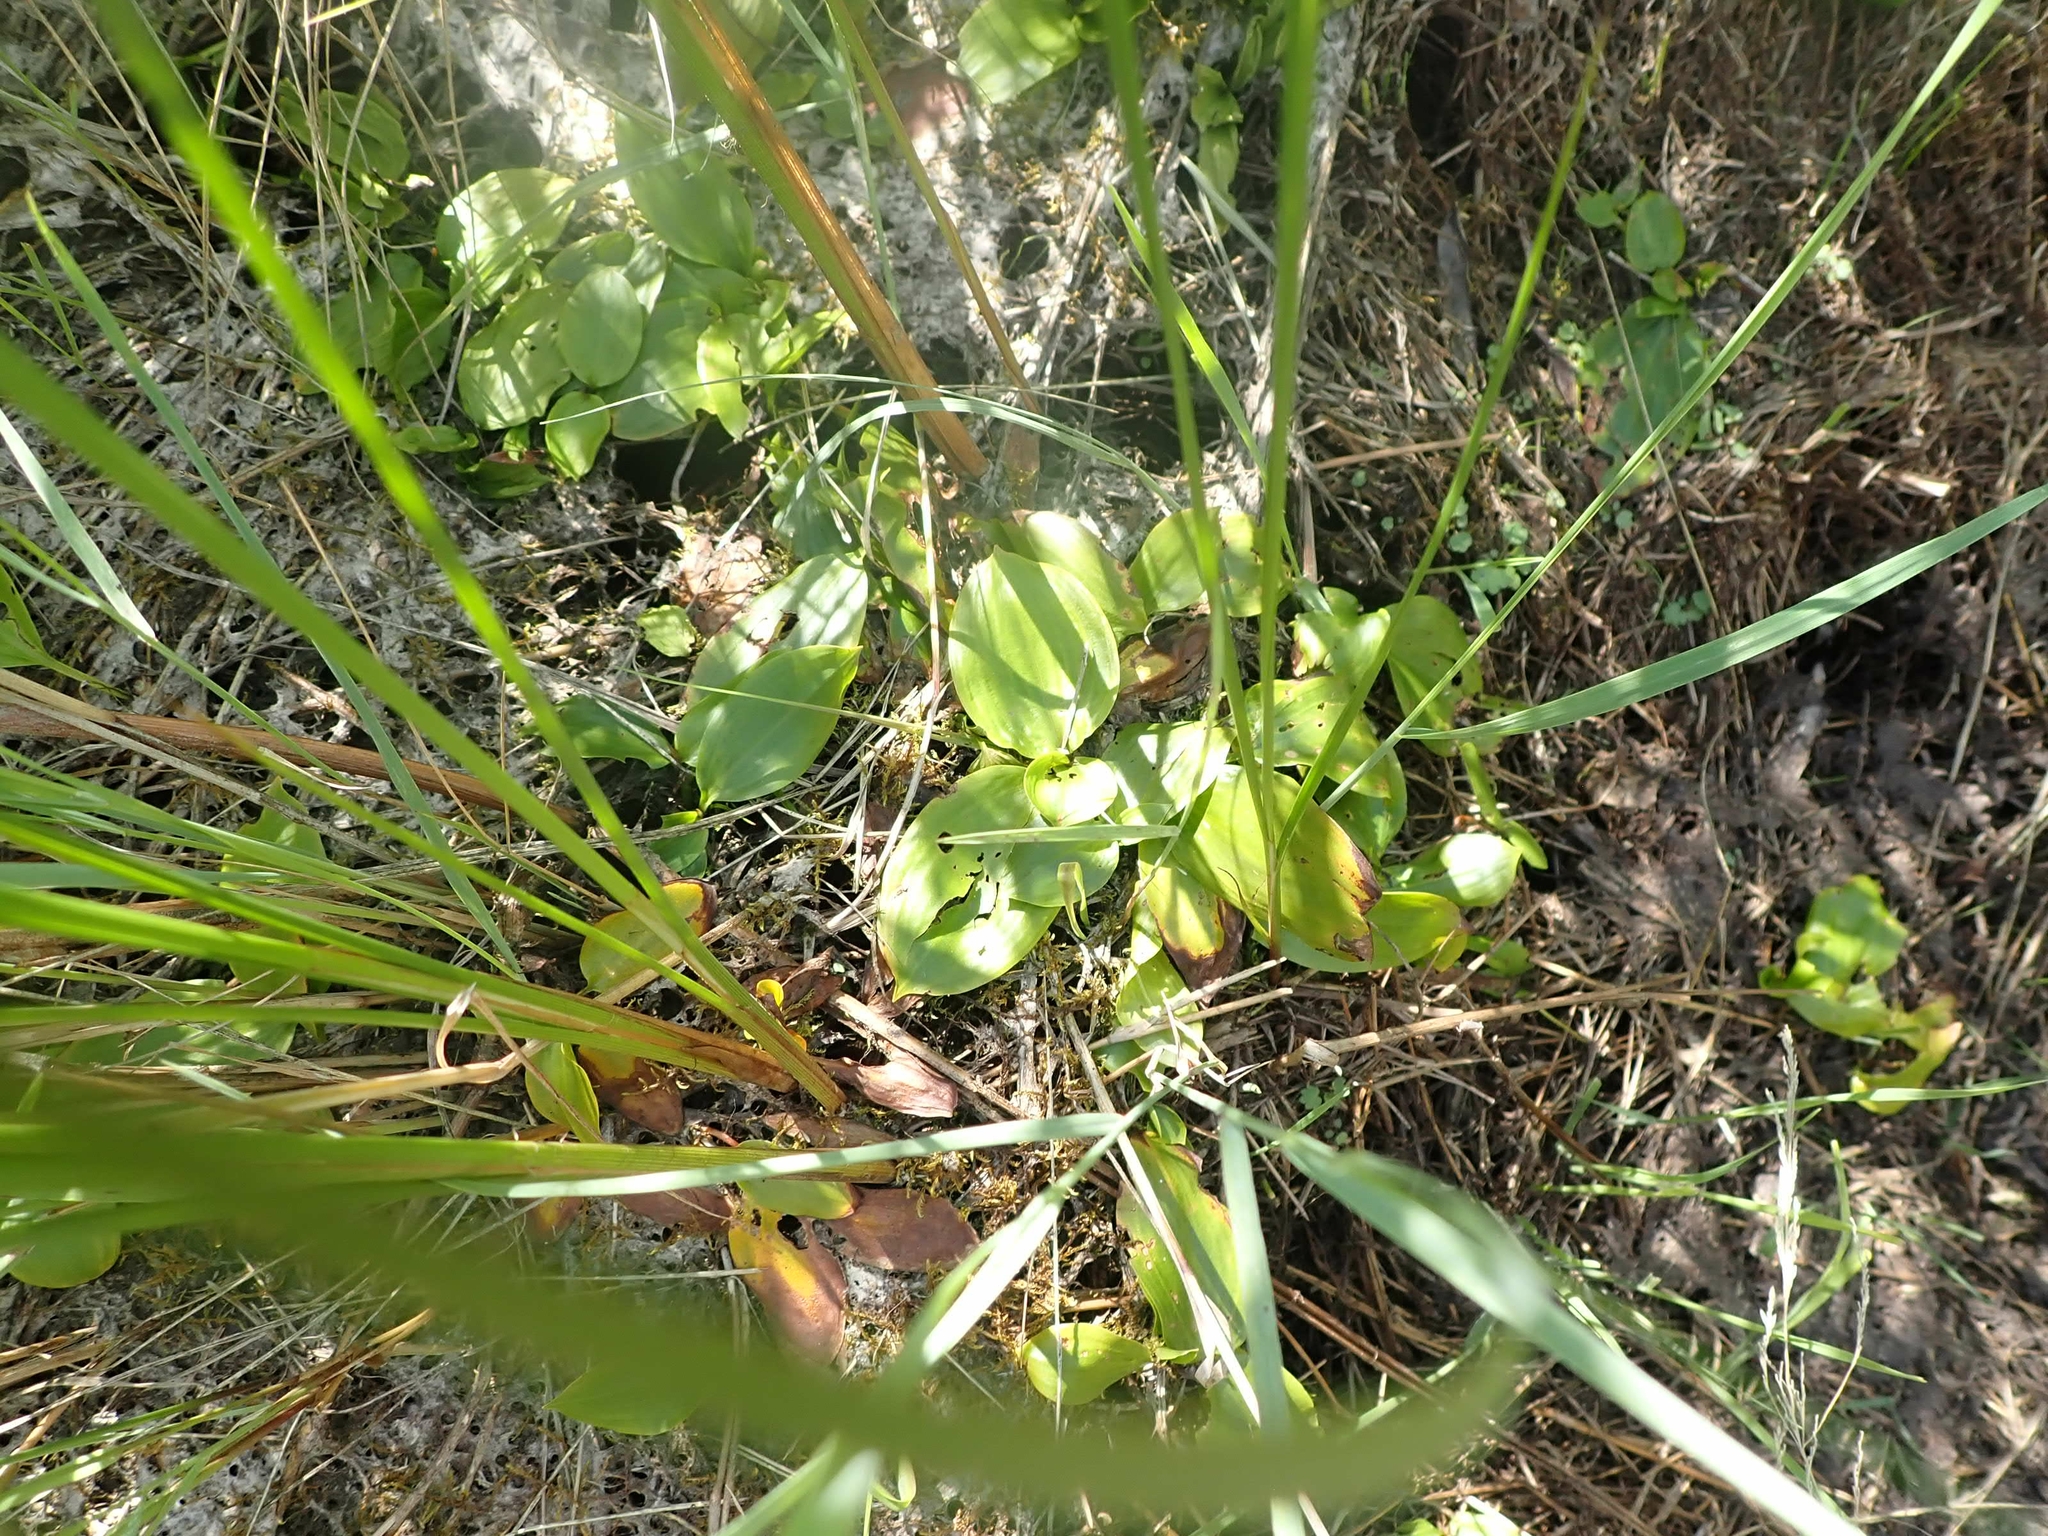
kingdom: Plantae
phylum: Tracheophyta
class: Liliopsida
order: Alismatales
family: Alismataceae
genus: Alisma
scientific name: Alisma triviale
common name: Northern water-plantain
